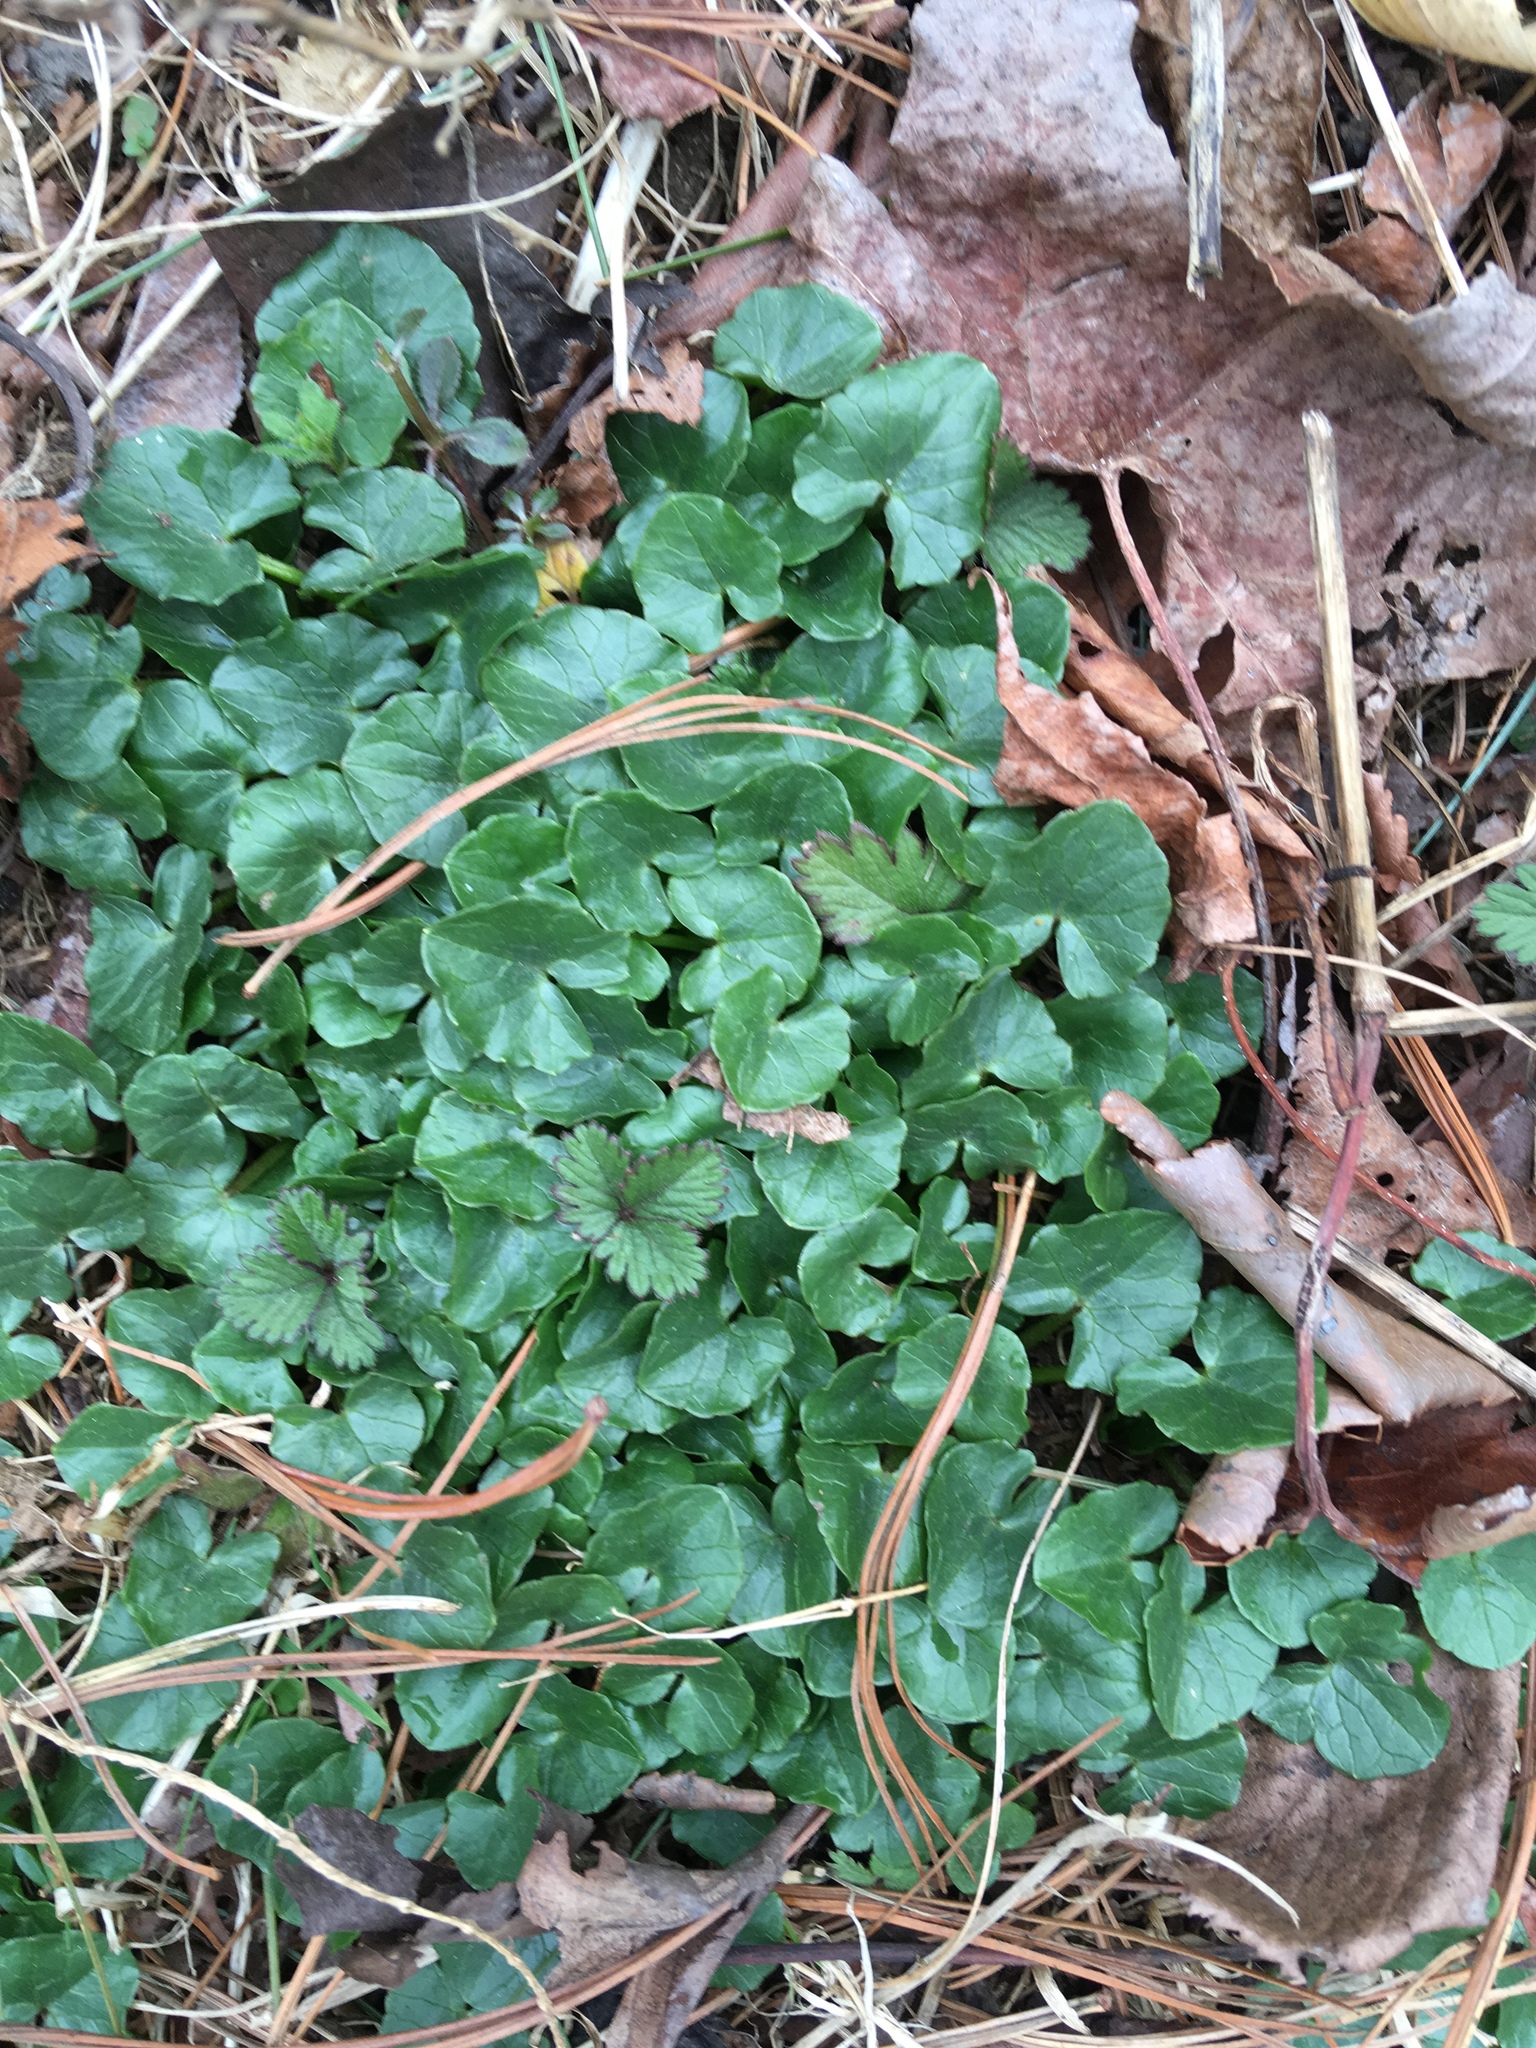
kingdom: Plantae
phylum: Tracheophyta
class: Magnoliopsida
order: Ranunculales
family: Ranunculaceae
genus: Ficaria
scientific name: Ficaria verna
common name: Lesser celandine
